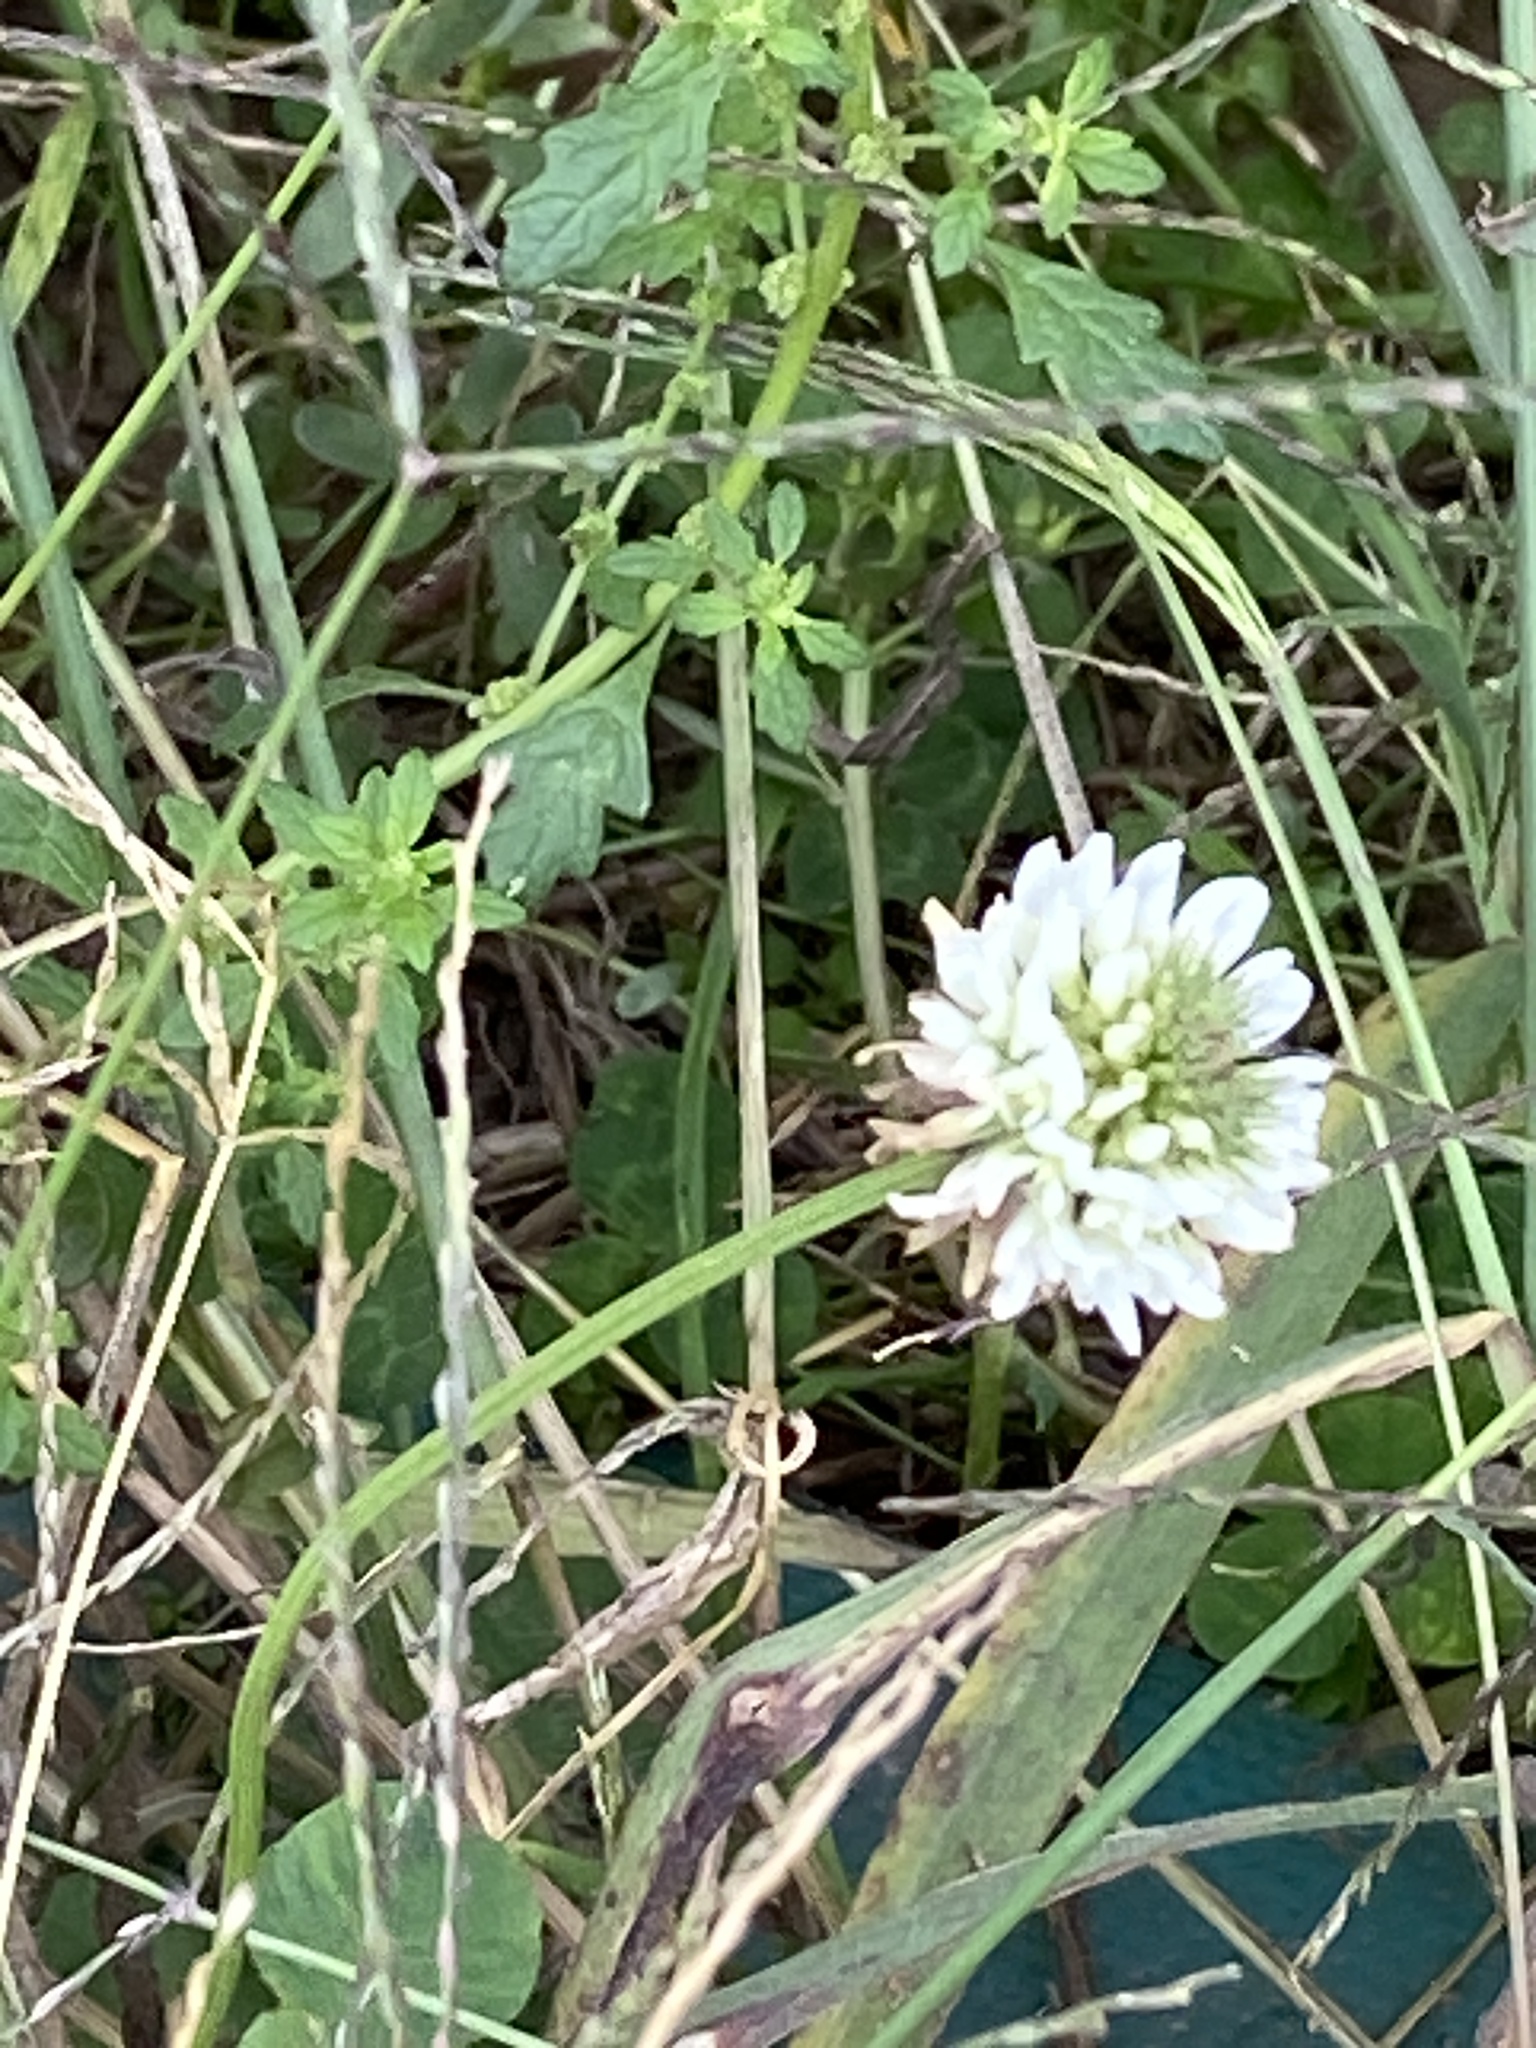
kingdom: Plantae
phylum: Tracheophyta
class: Magnoliopsida
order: Fabales
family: Fabaceae
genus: Trifolium
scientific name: Trifolium repens
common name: White clover
